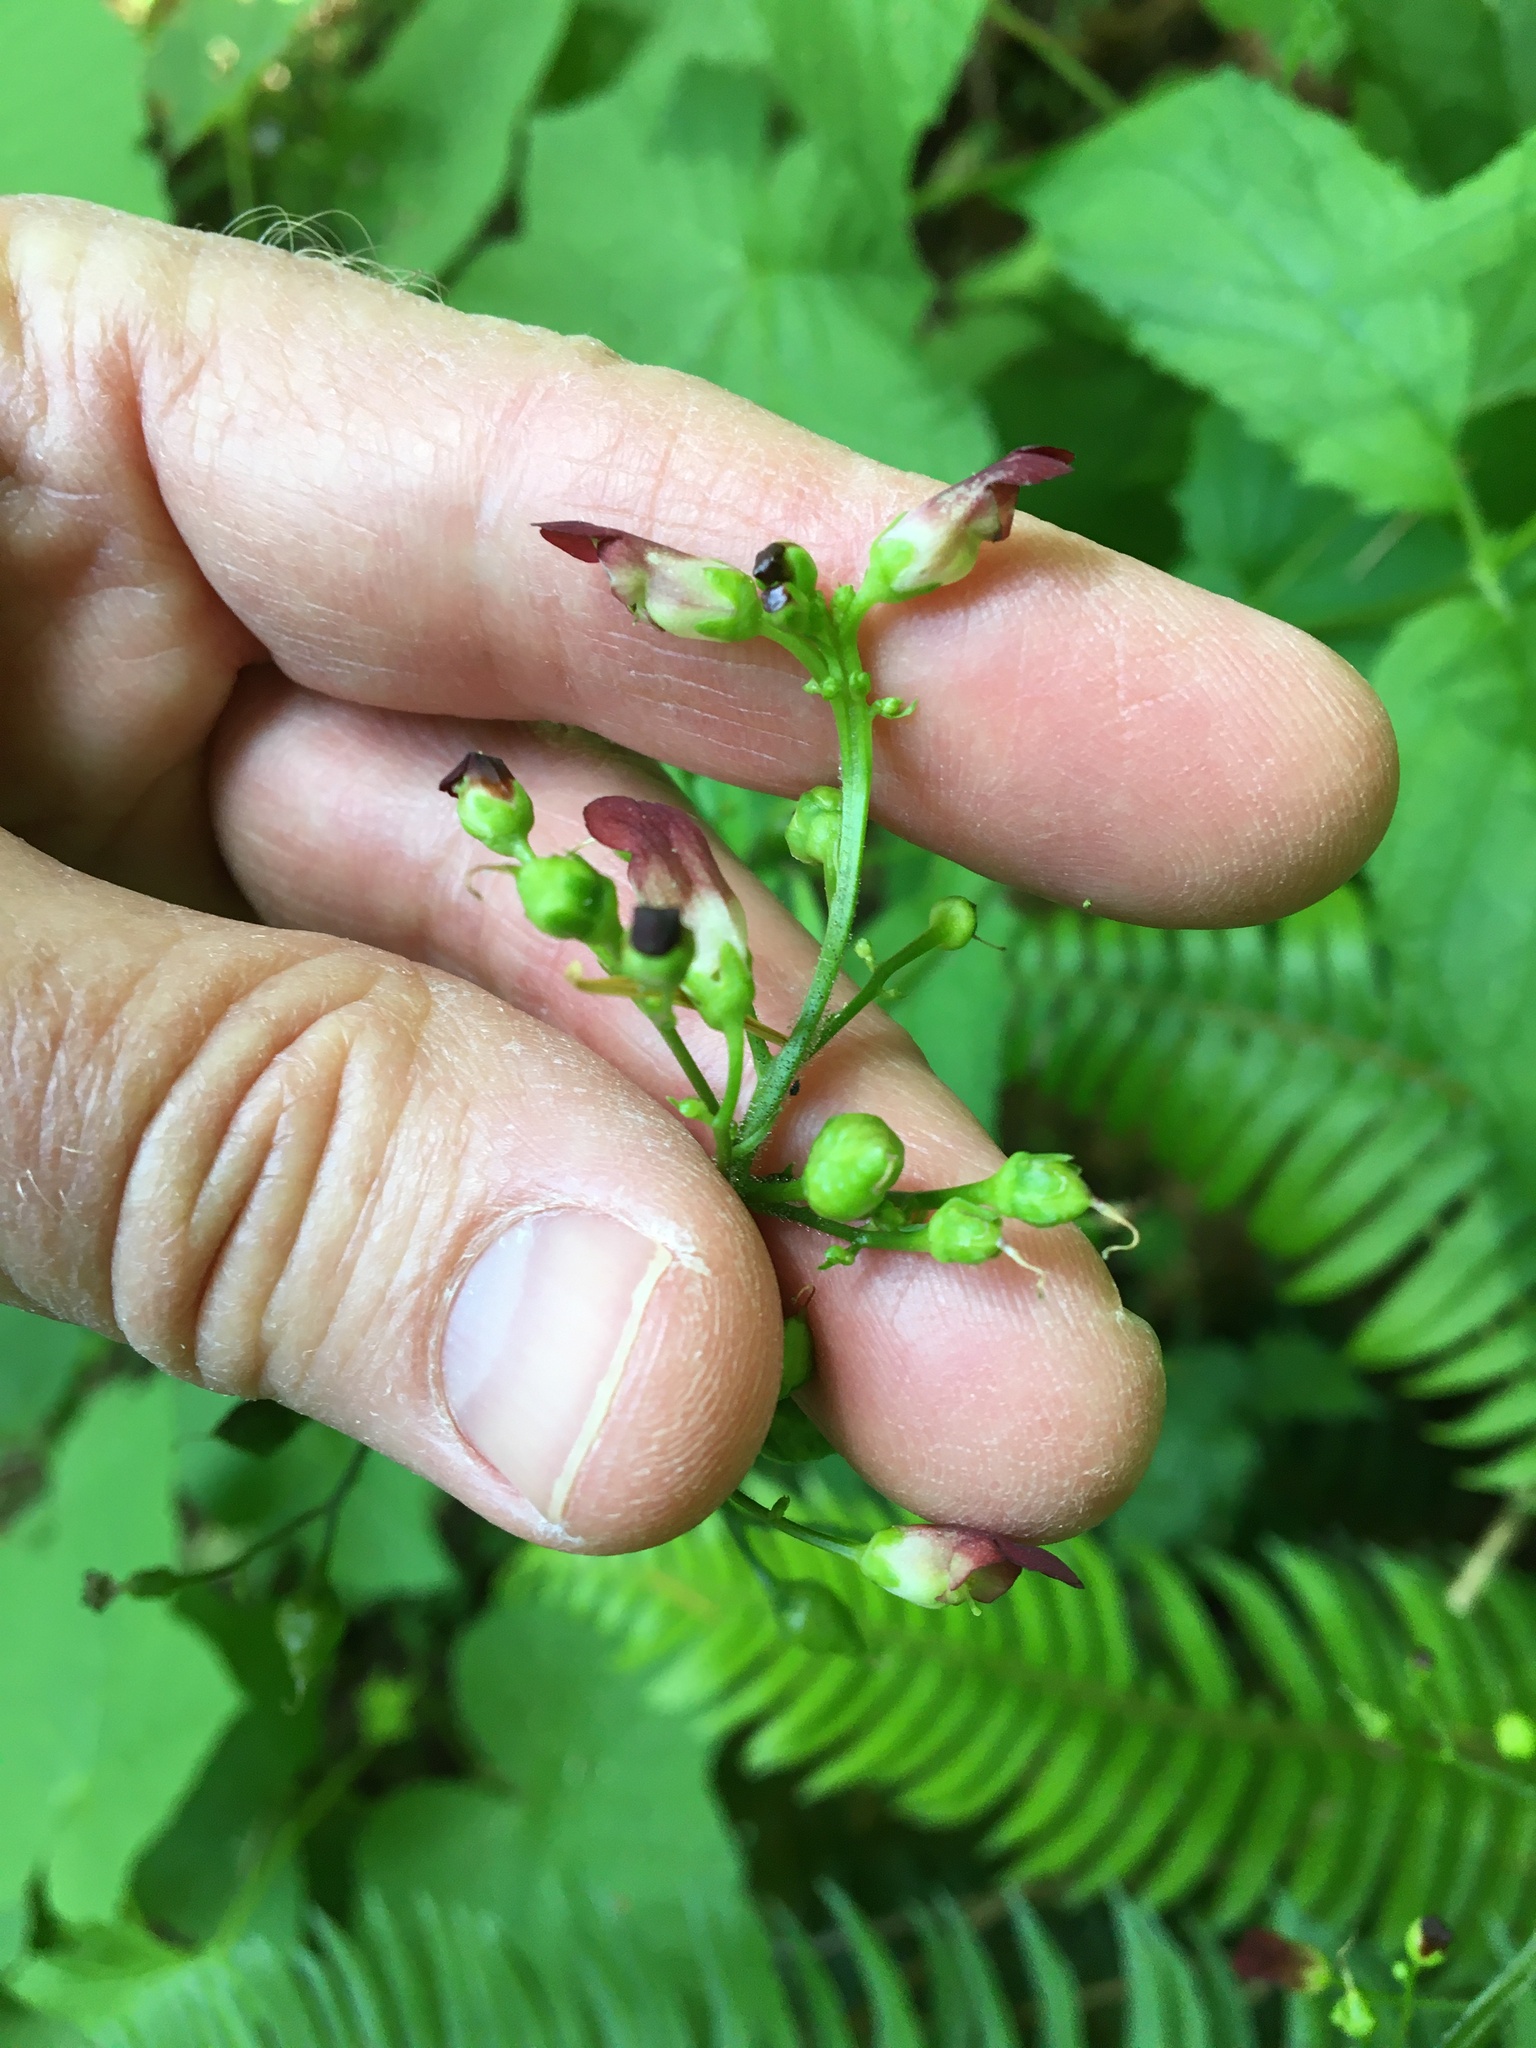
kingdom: Plantae
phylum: Tracheophyta
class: Magnoliopsida
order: Lamiales
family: Scrophulariaceae
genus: Scrophularia
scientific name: Scrophularia californica
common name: California figwort
